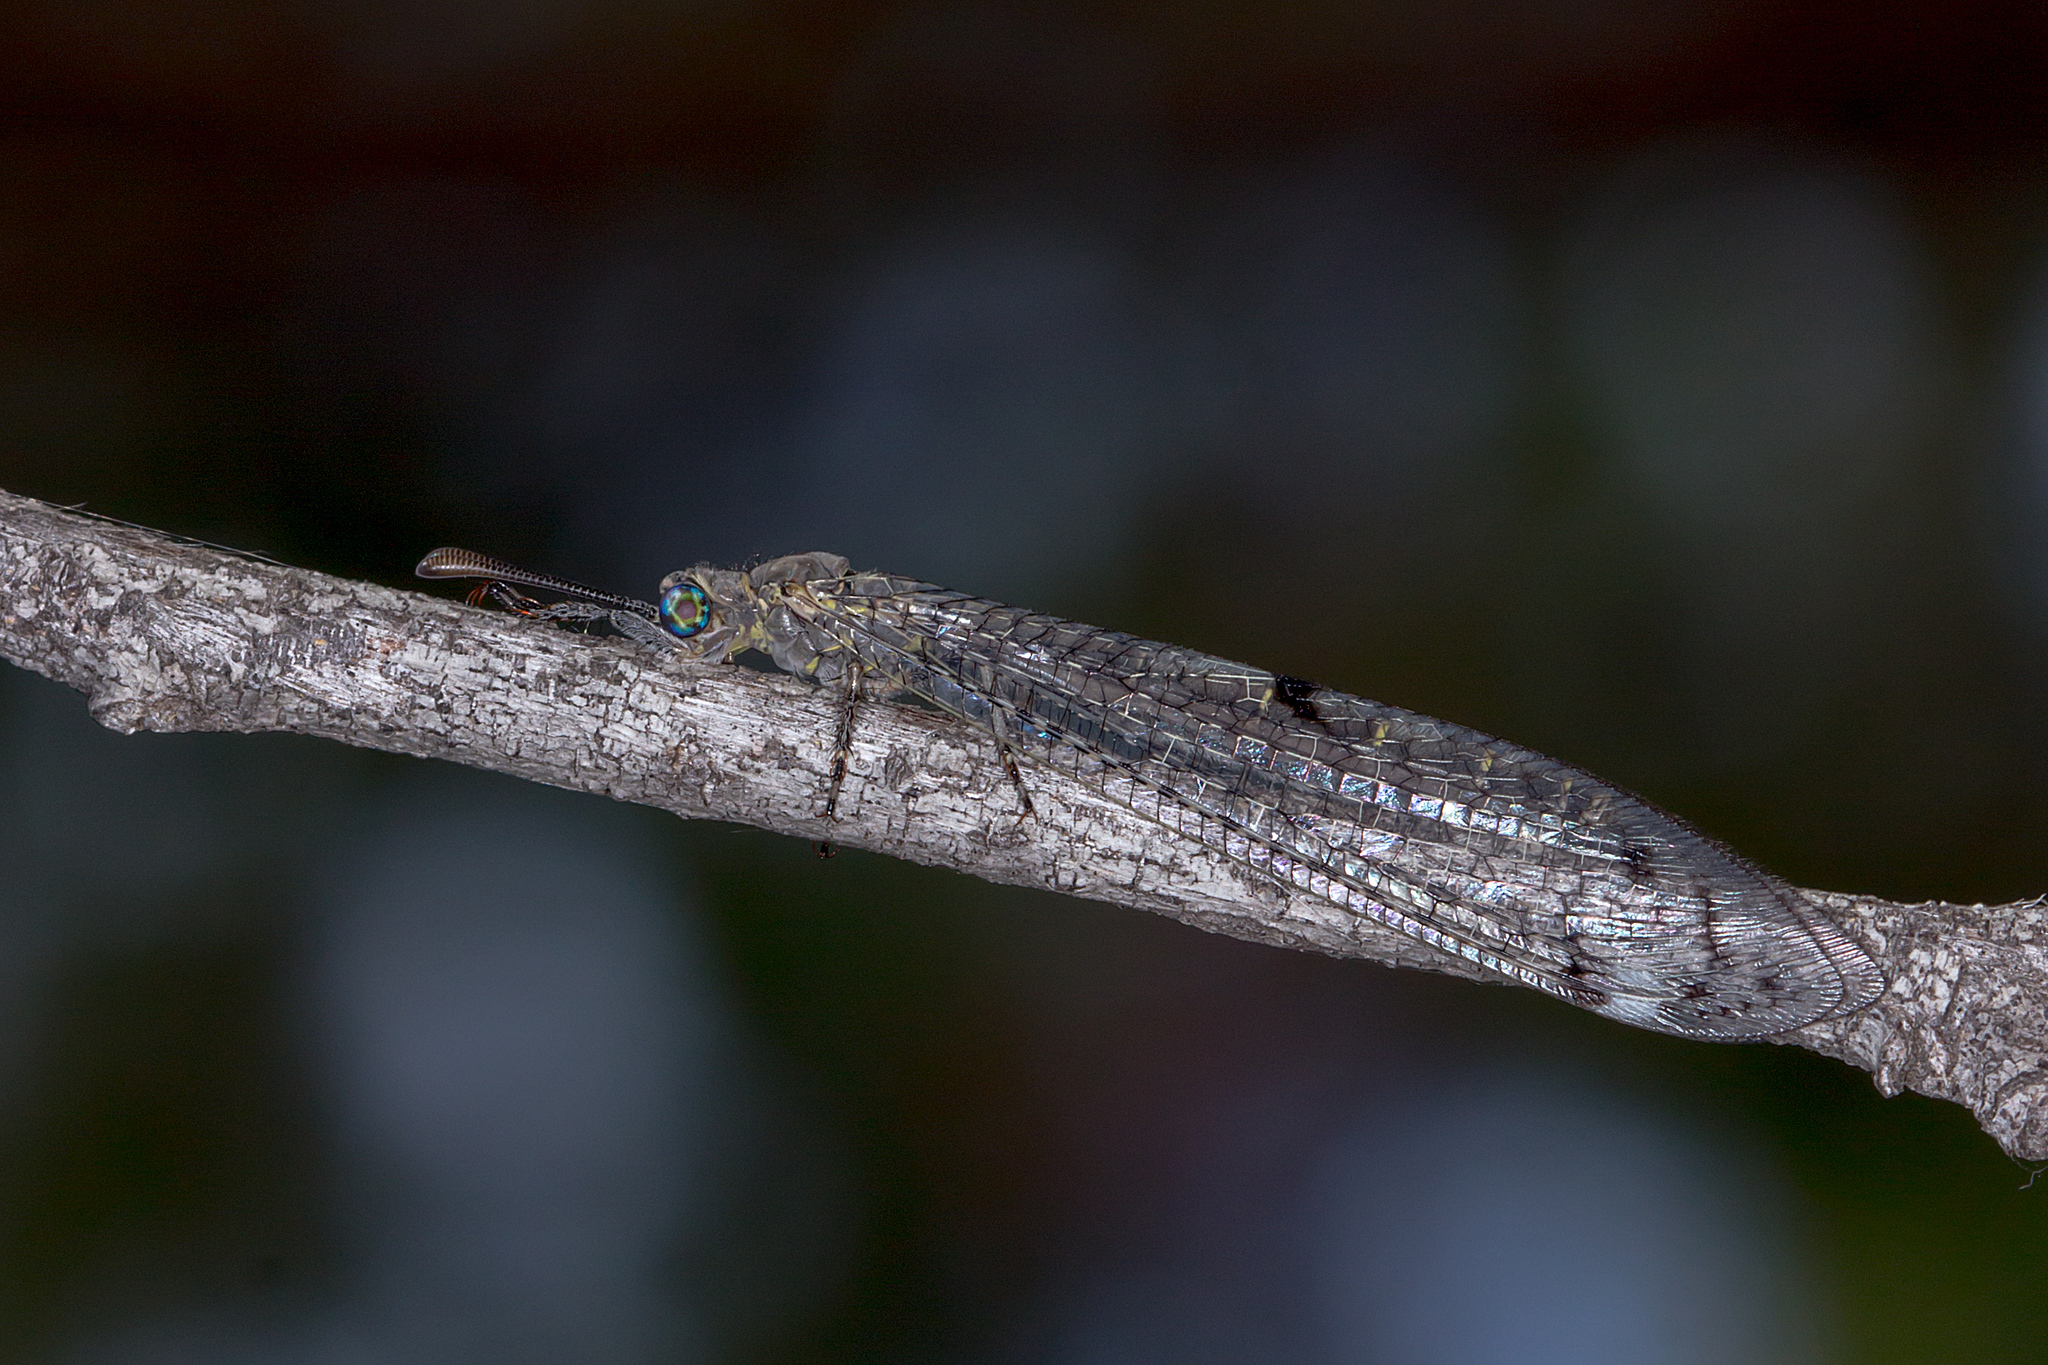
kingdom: Animalia
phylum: Arthropoda
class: Insecta
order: Neuroptera
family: Myrmeleontidae
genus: Bandidus
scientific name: Bandidus canifrons
